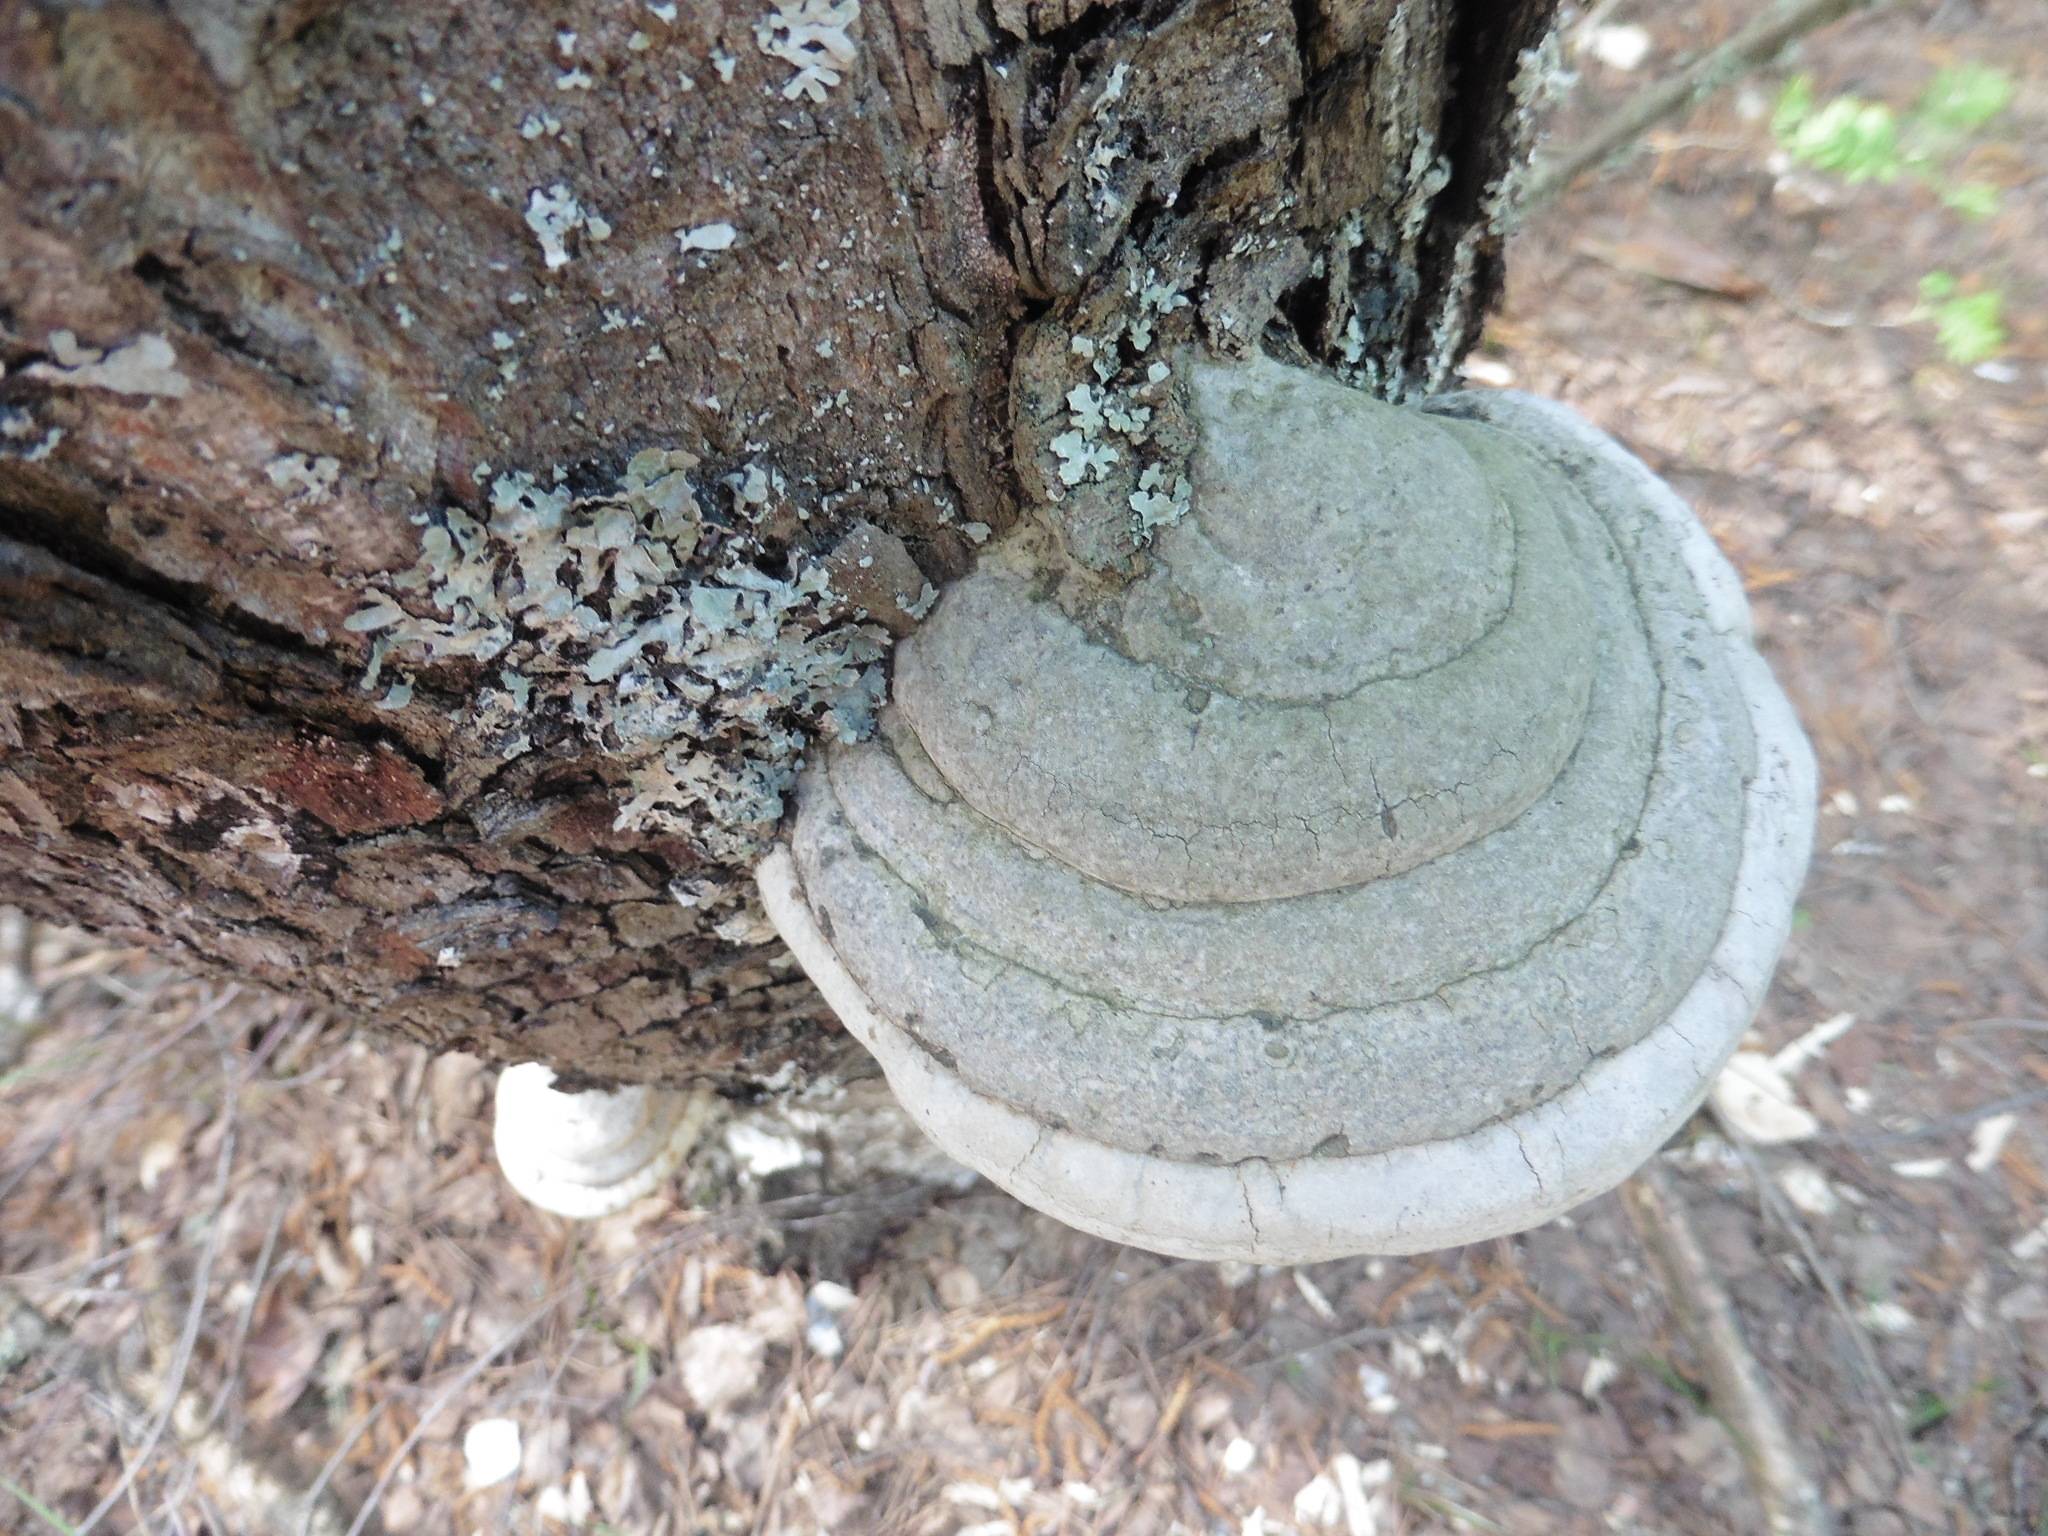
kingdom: Fungi
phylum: Basidiomycota
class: Agaricomycetes
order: Polyporales
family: Polyporaceae
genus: Fomes
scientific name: Fomes fomentarius
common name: Hoof fungus
